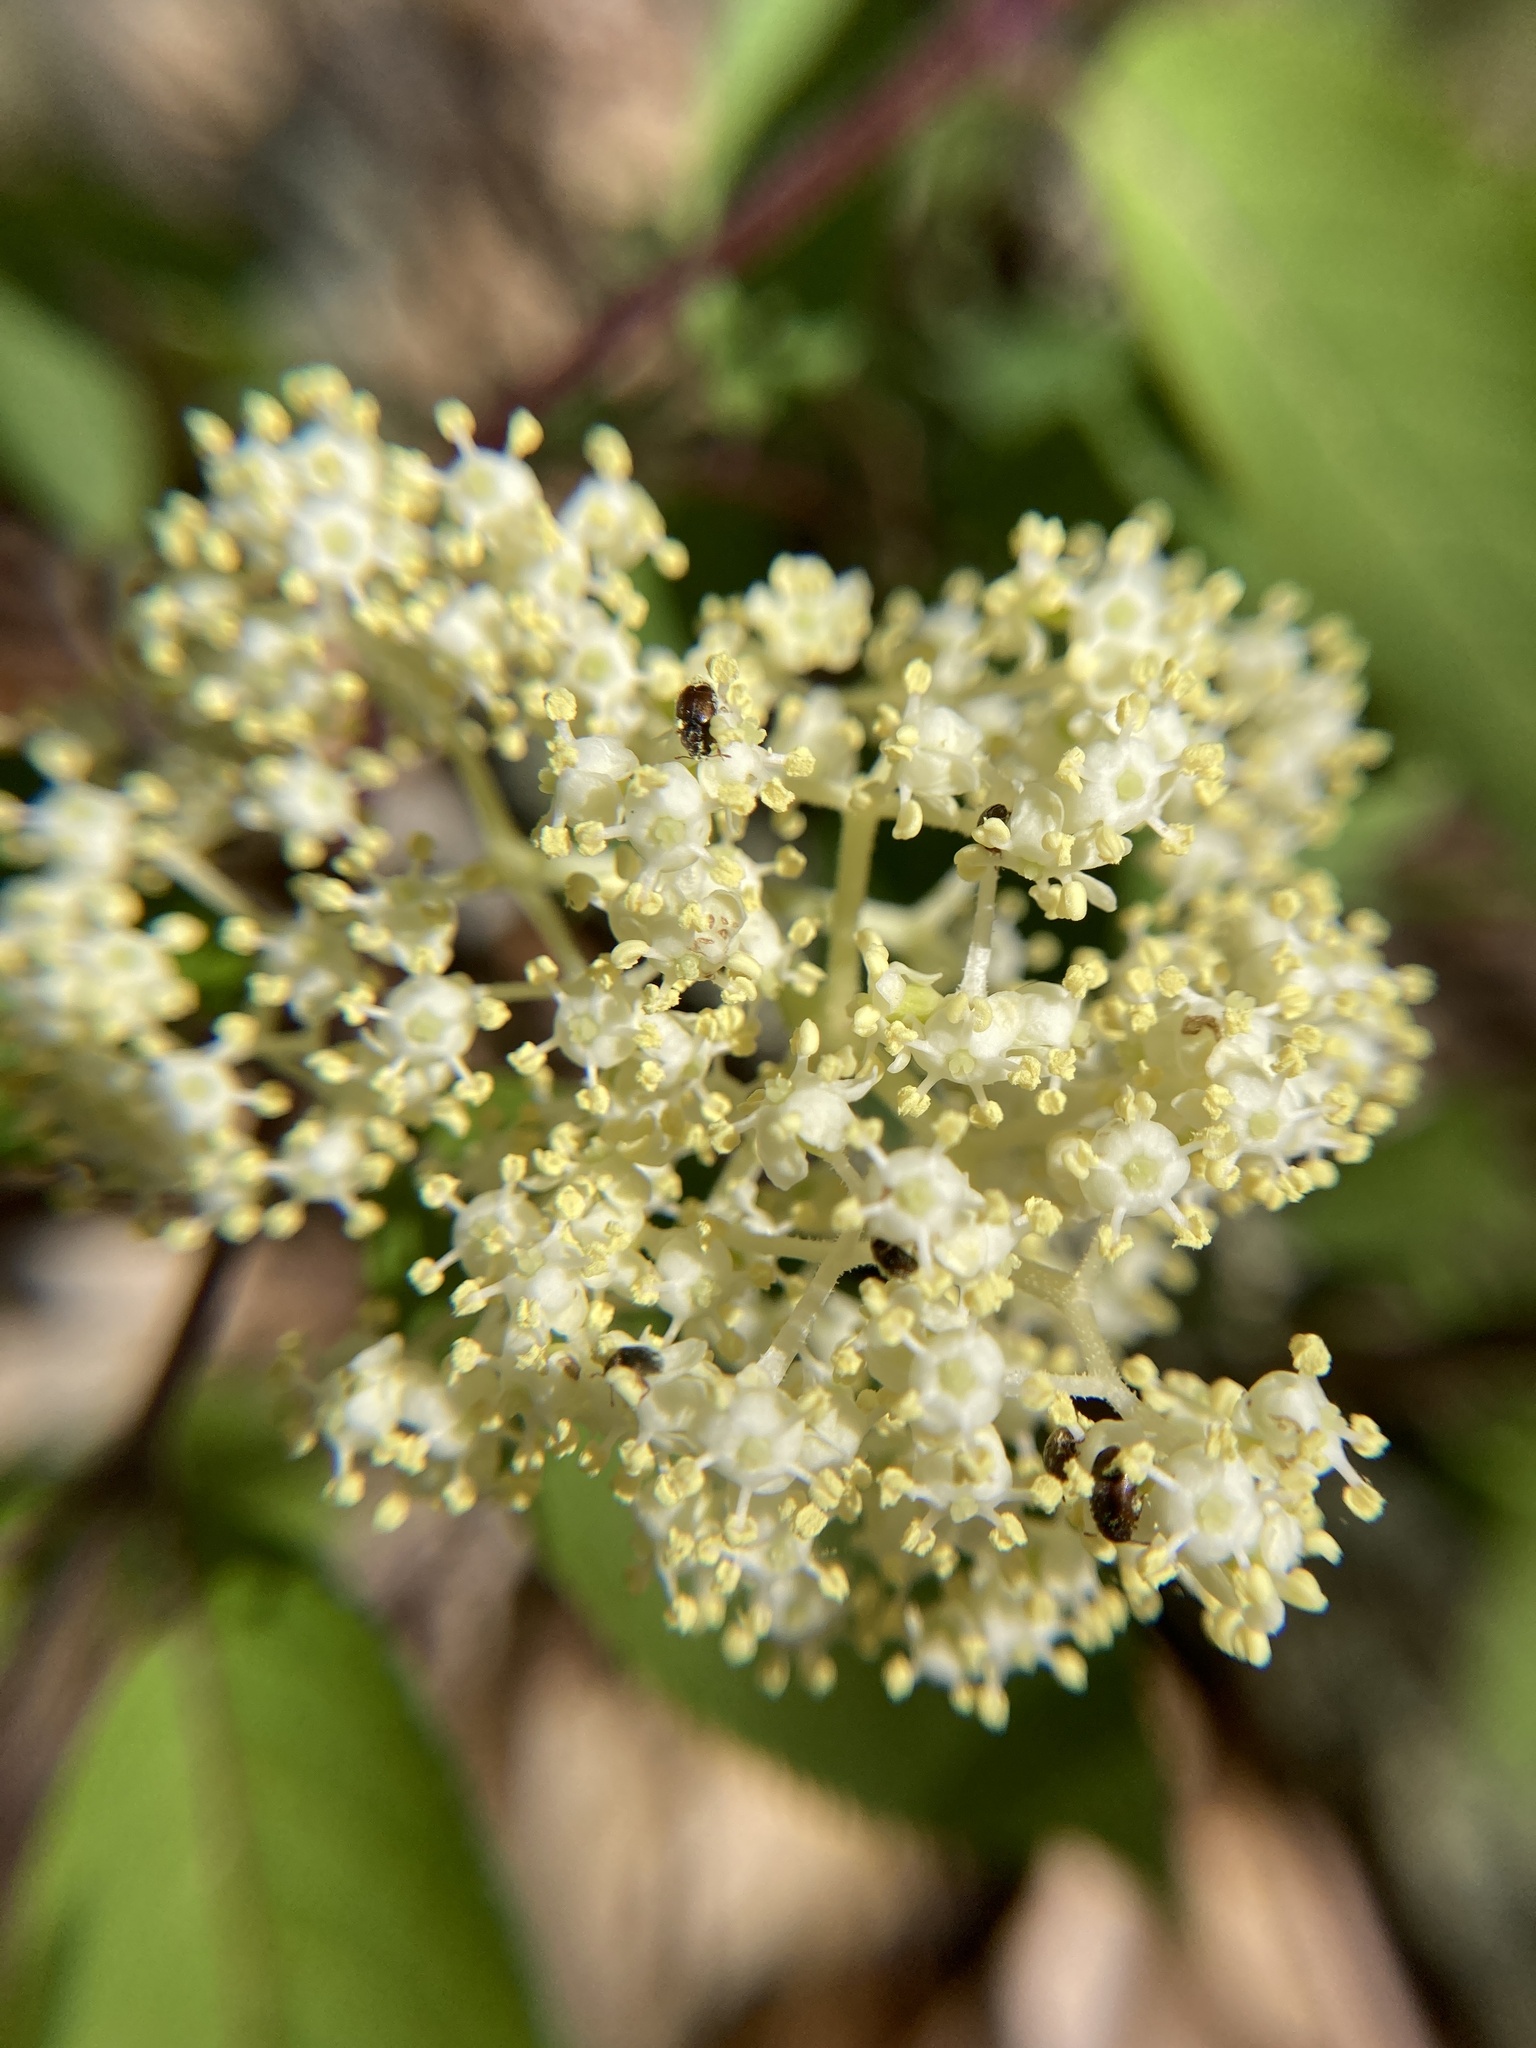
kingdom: Plantae
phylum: Tracheophyta
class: Magnoliopsida
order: Dipsacales
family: Viburnaceae
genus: Sambucus
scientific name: Sambucus racemosa
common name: Red-berried elder
